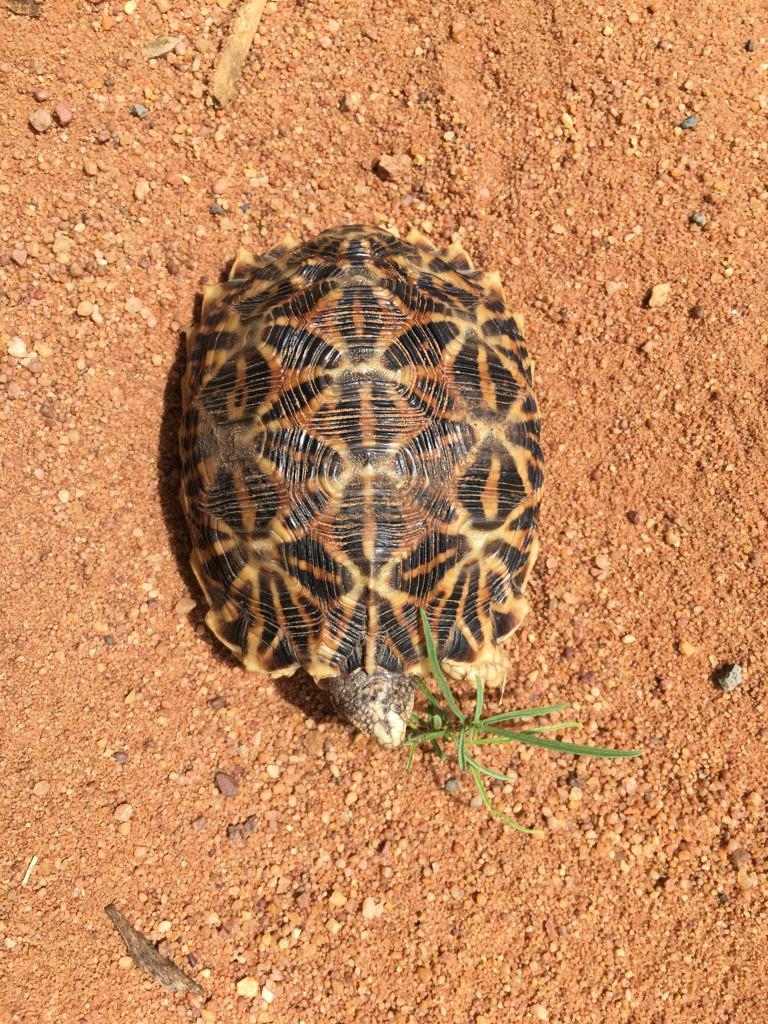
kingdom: Animalia
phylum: Chordata
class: Testudines
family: Testudinidae
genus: Psammobates
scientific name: Psammobates oculifer
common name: Serrated tortoise
